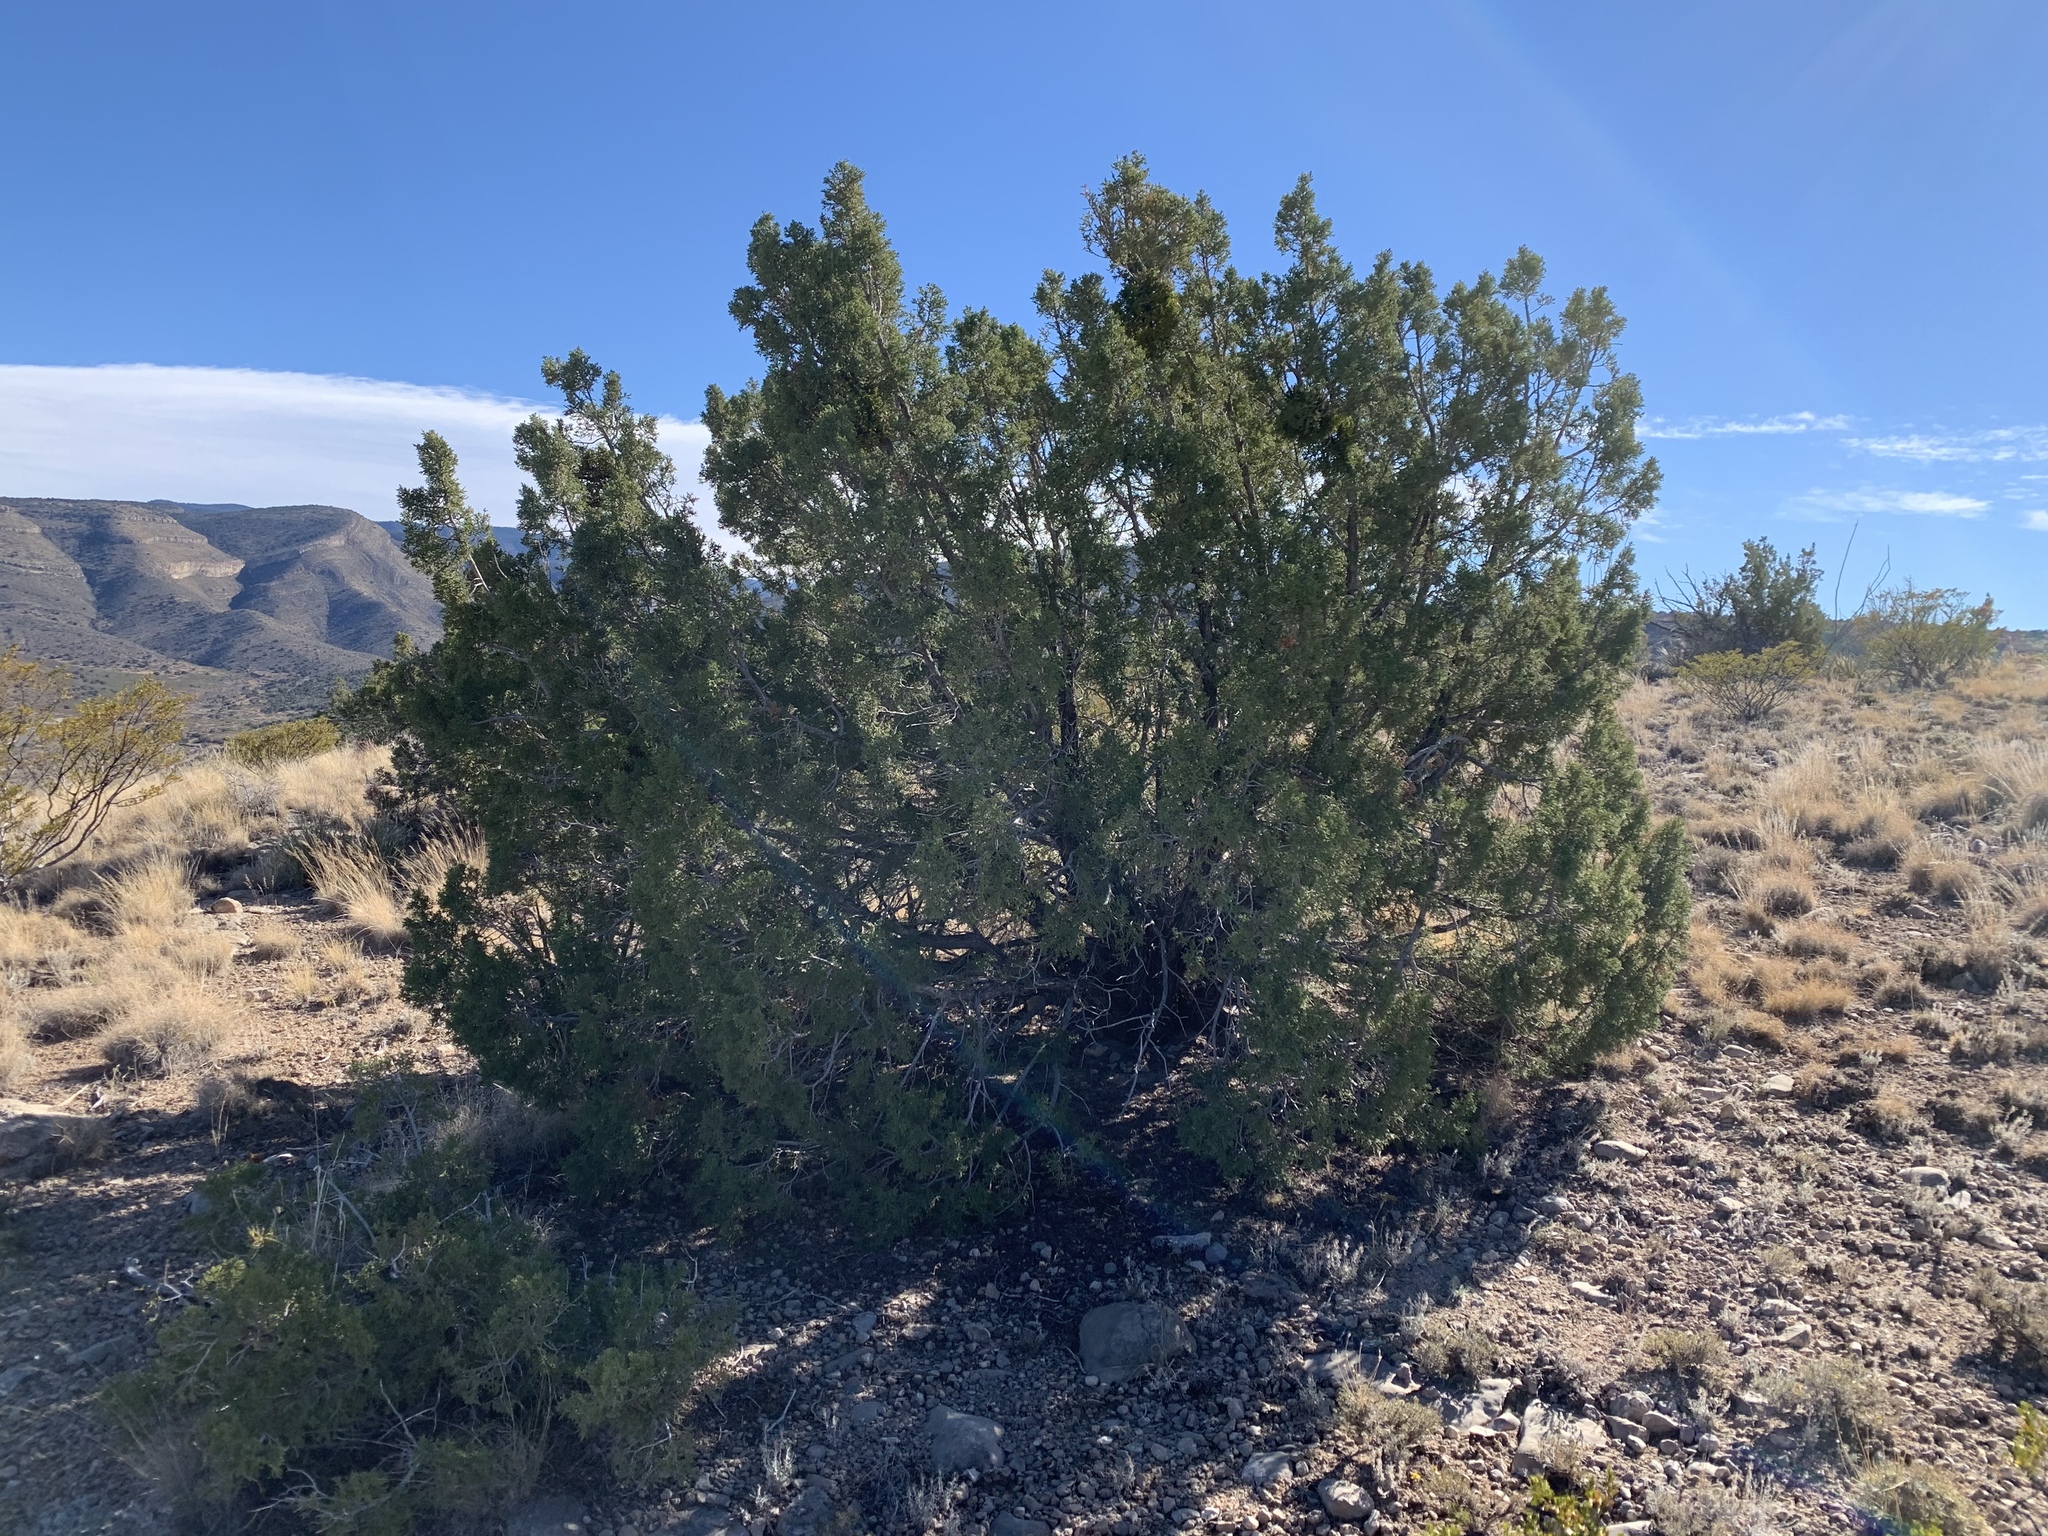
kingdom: Plantae
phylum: Tracheophyta
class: Pinopsida
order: Pinales
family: Cupressaceae
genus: Juniperus
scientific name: Juniperus monosperma
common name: One-seed juniper
